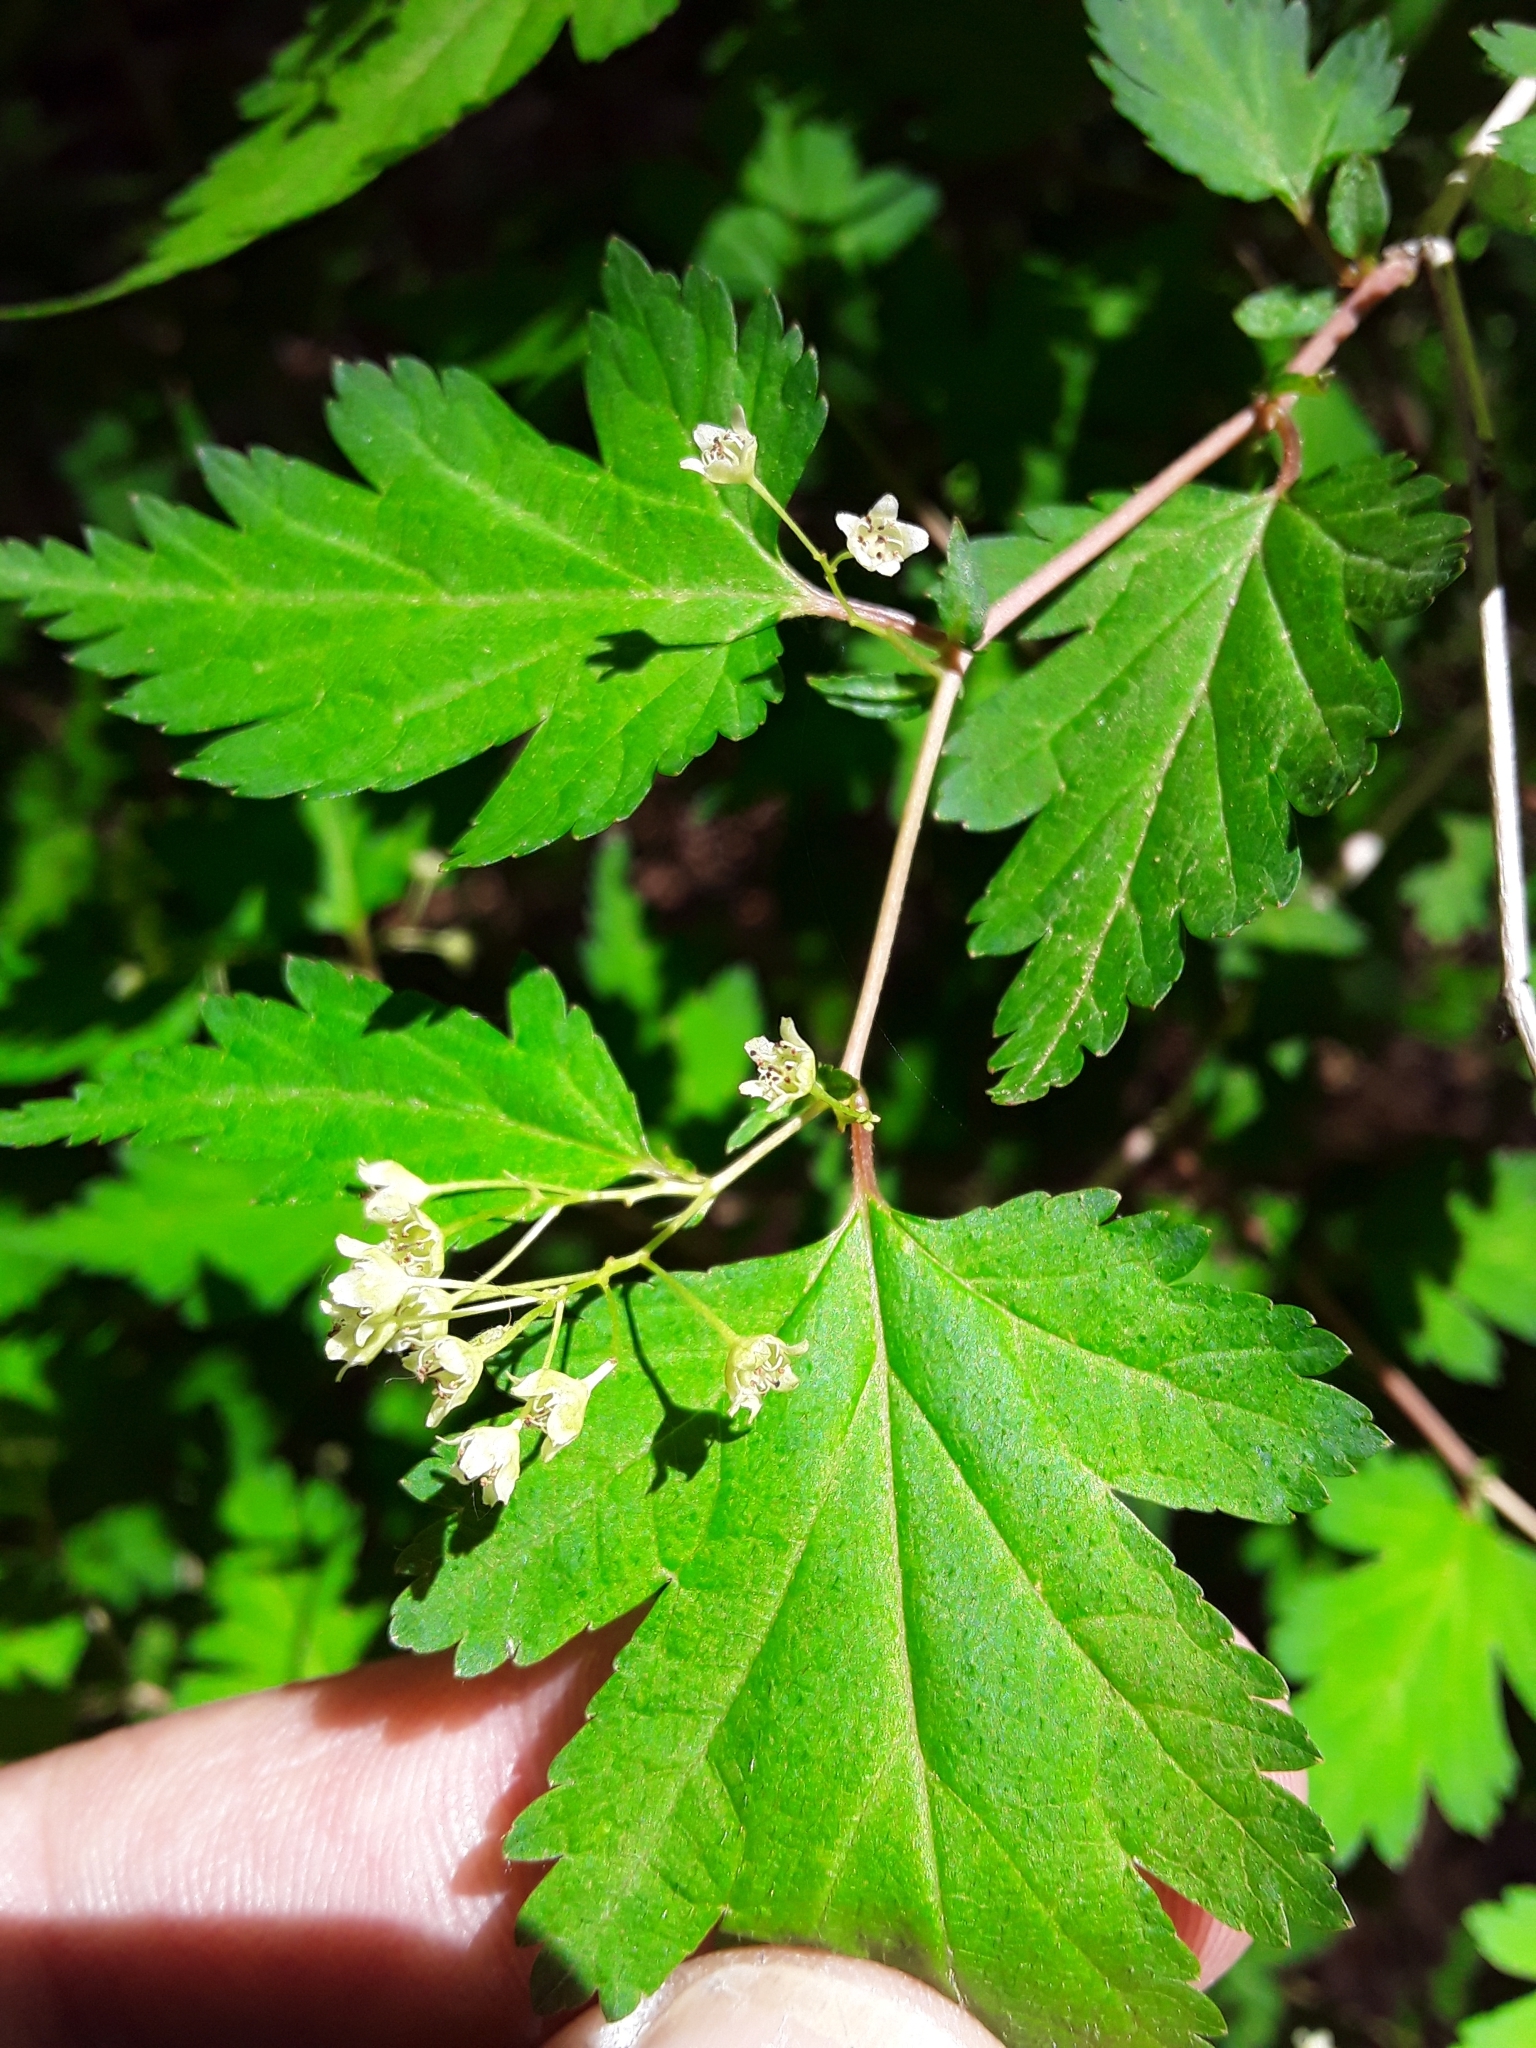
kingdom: Plantae
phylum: Tracheophyta
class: Magnoliopsida
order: Rosales
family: Rosaceae
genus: Neillia
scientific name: Neillia incisa
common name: Laceshrub
